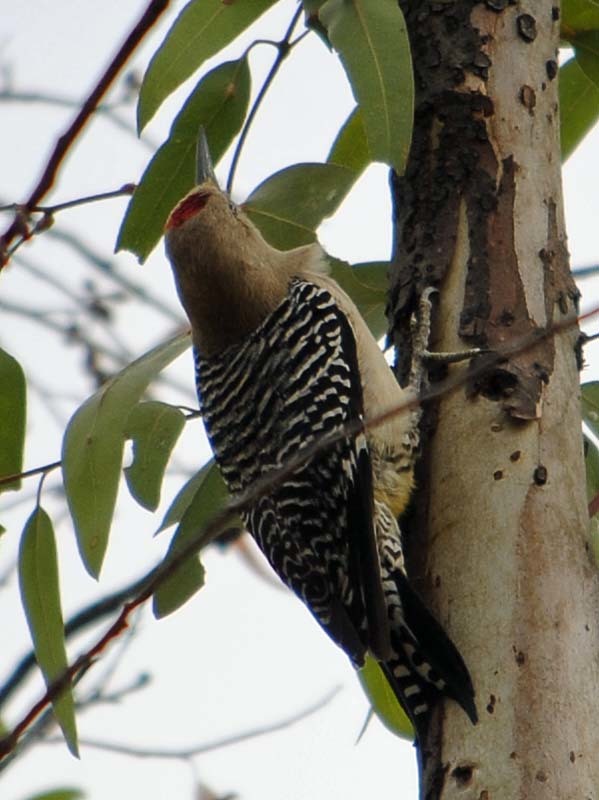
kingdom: Animalia
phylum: Chordata
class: Aves
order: Piciformes
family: Picidae
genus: Melanerpes
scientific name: Melanerpes uropygialis
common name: Gila woodpecker
